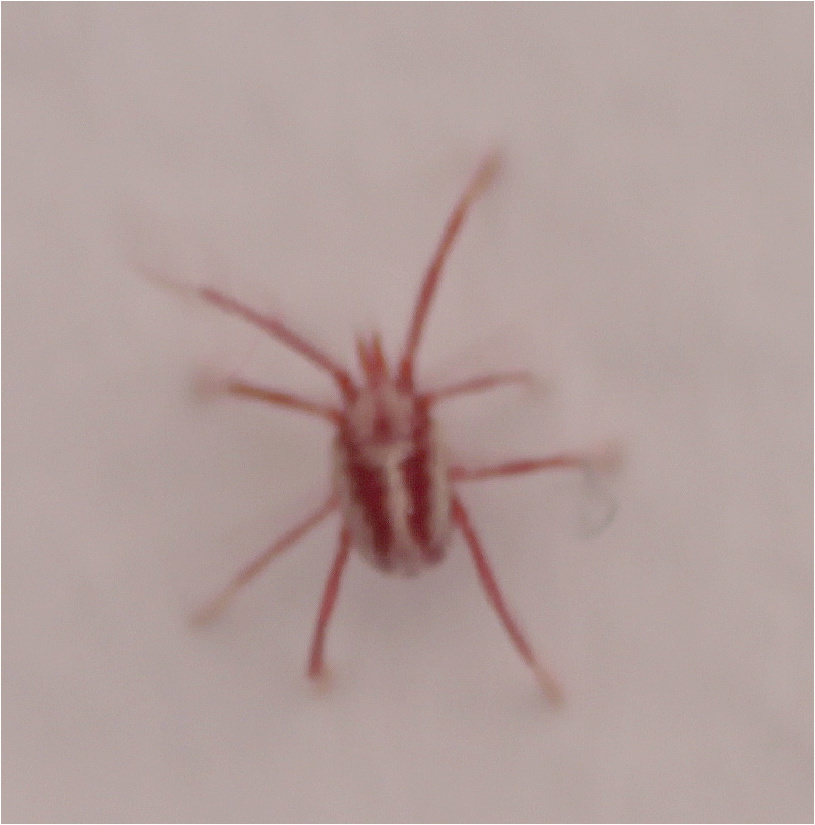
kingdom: Animalia
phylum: Arthropoda
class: Arachnida
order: Trombidiformes
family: Erythraeidae
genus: Balaustium
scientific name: Balaustium leanderi
